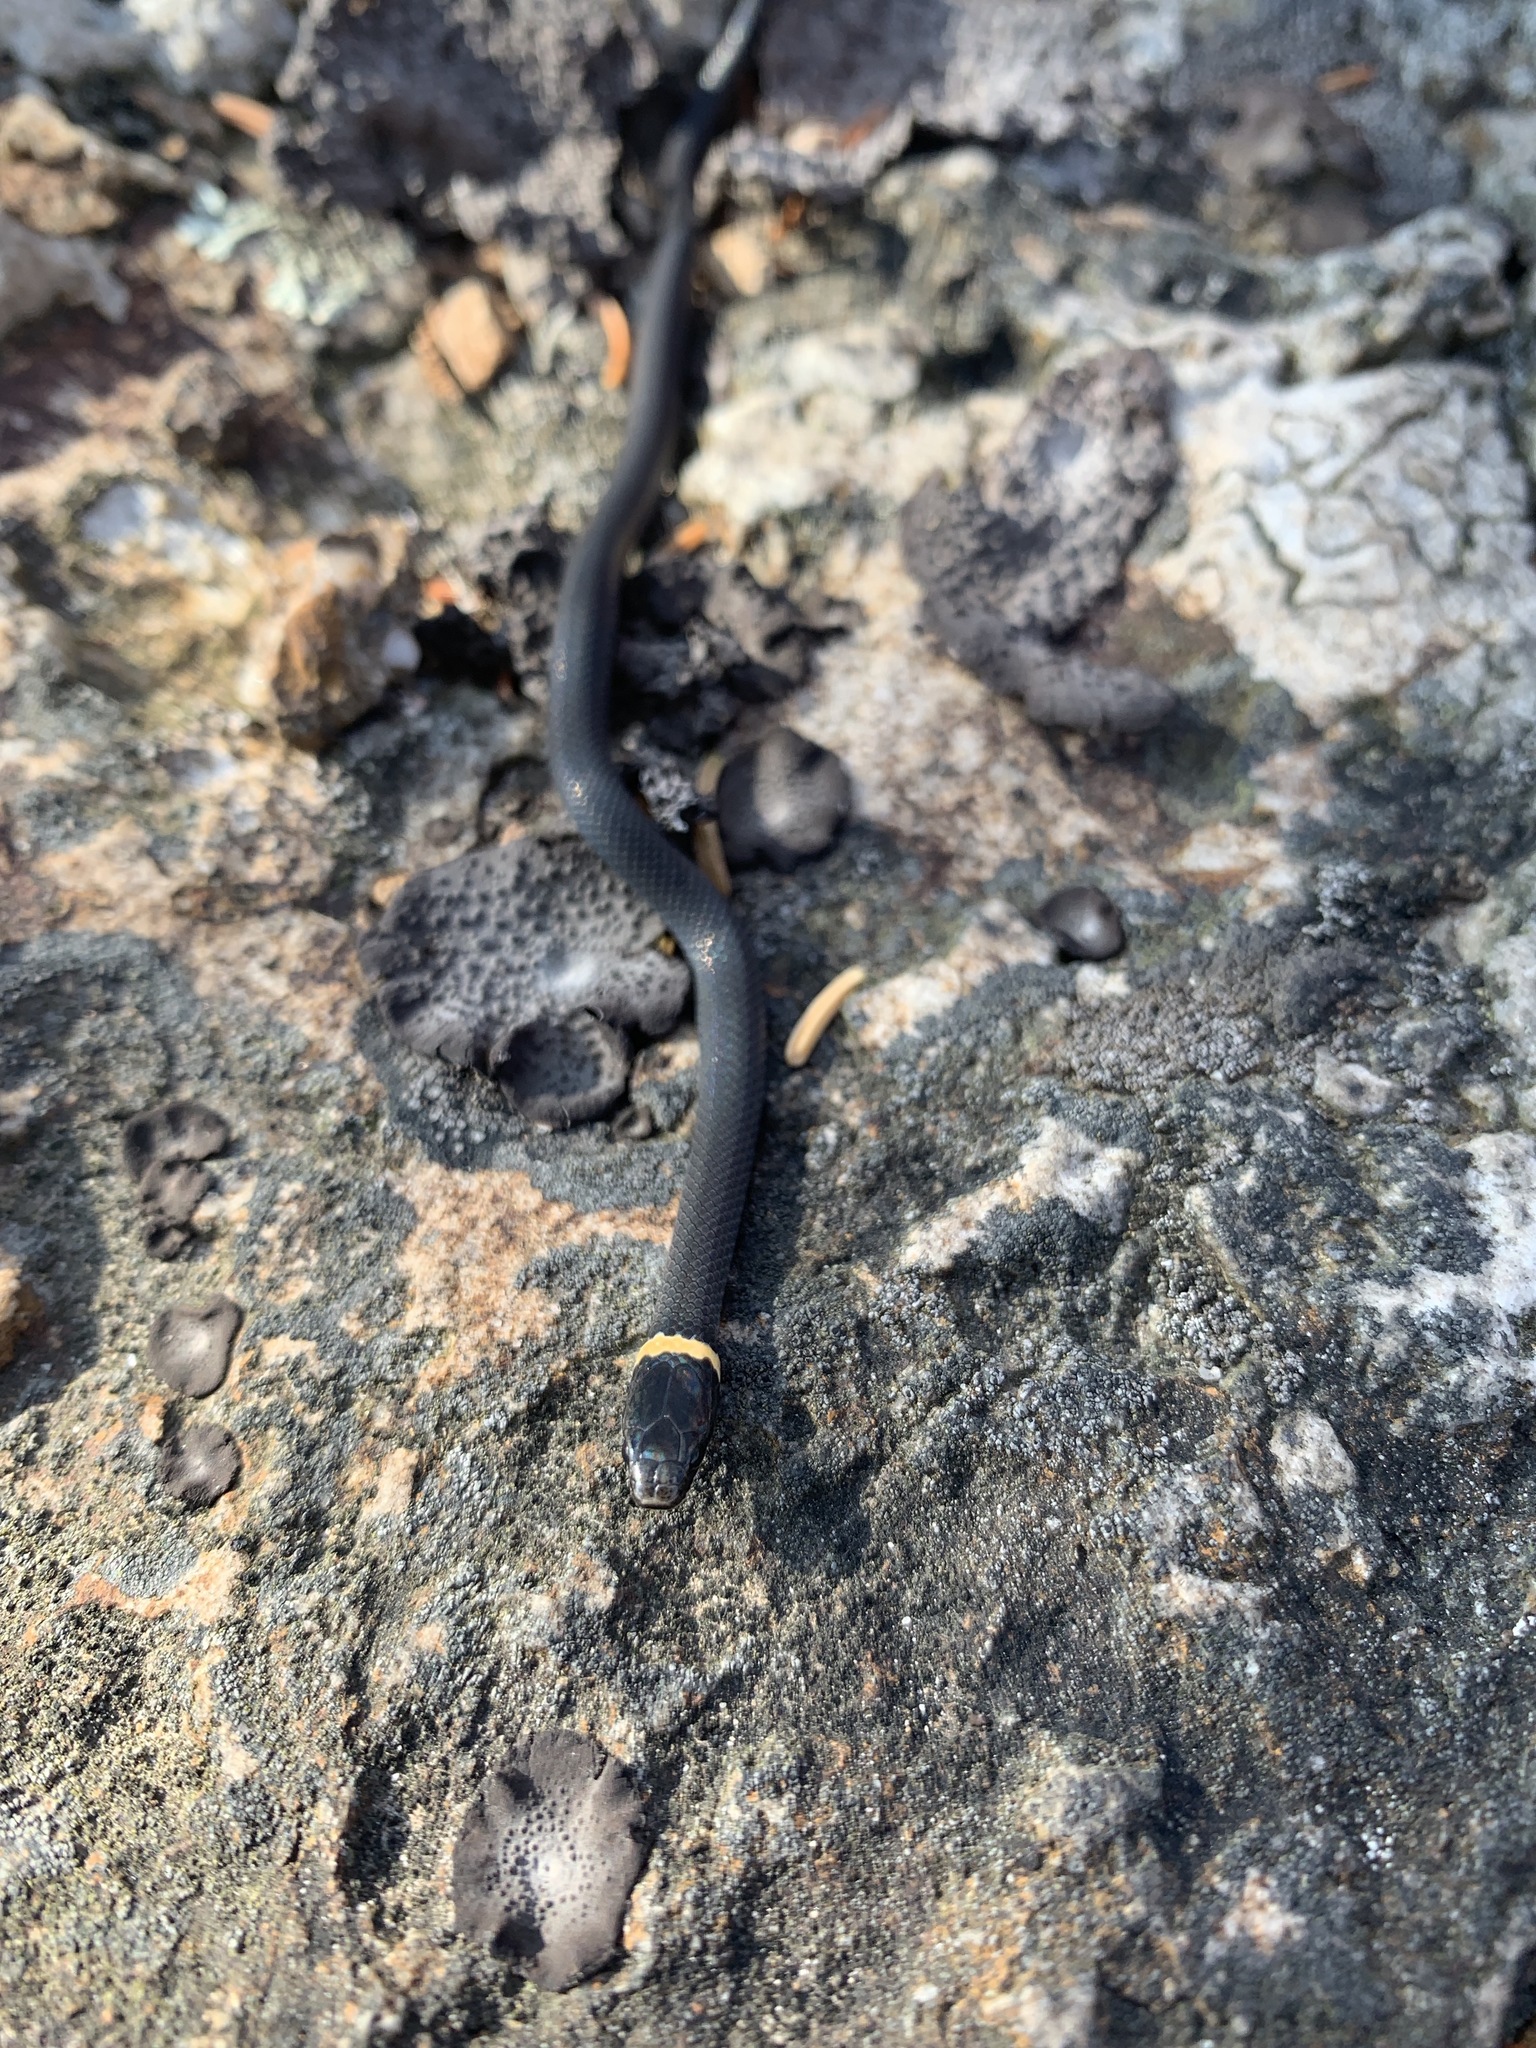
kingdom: Animalia
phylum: Chordata
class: Squamata
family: Colubridae
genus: Diadophis
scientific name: Diadophis punctatus
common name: Ringneck snake
